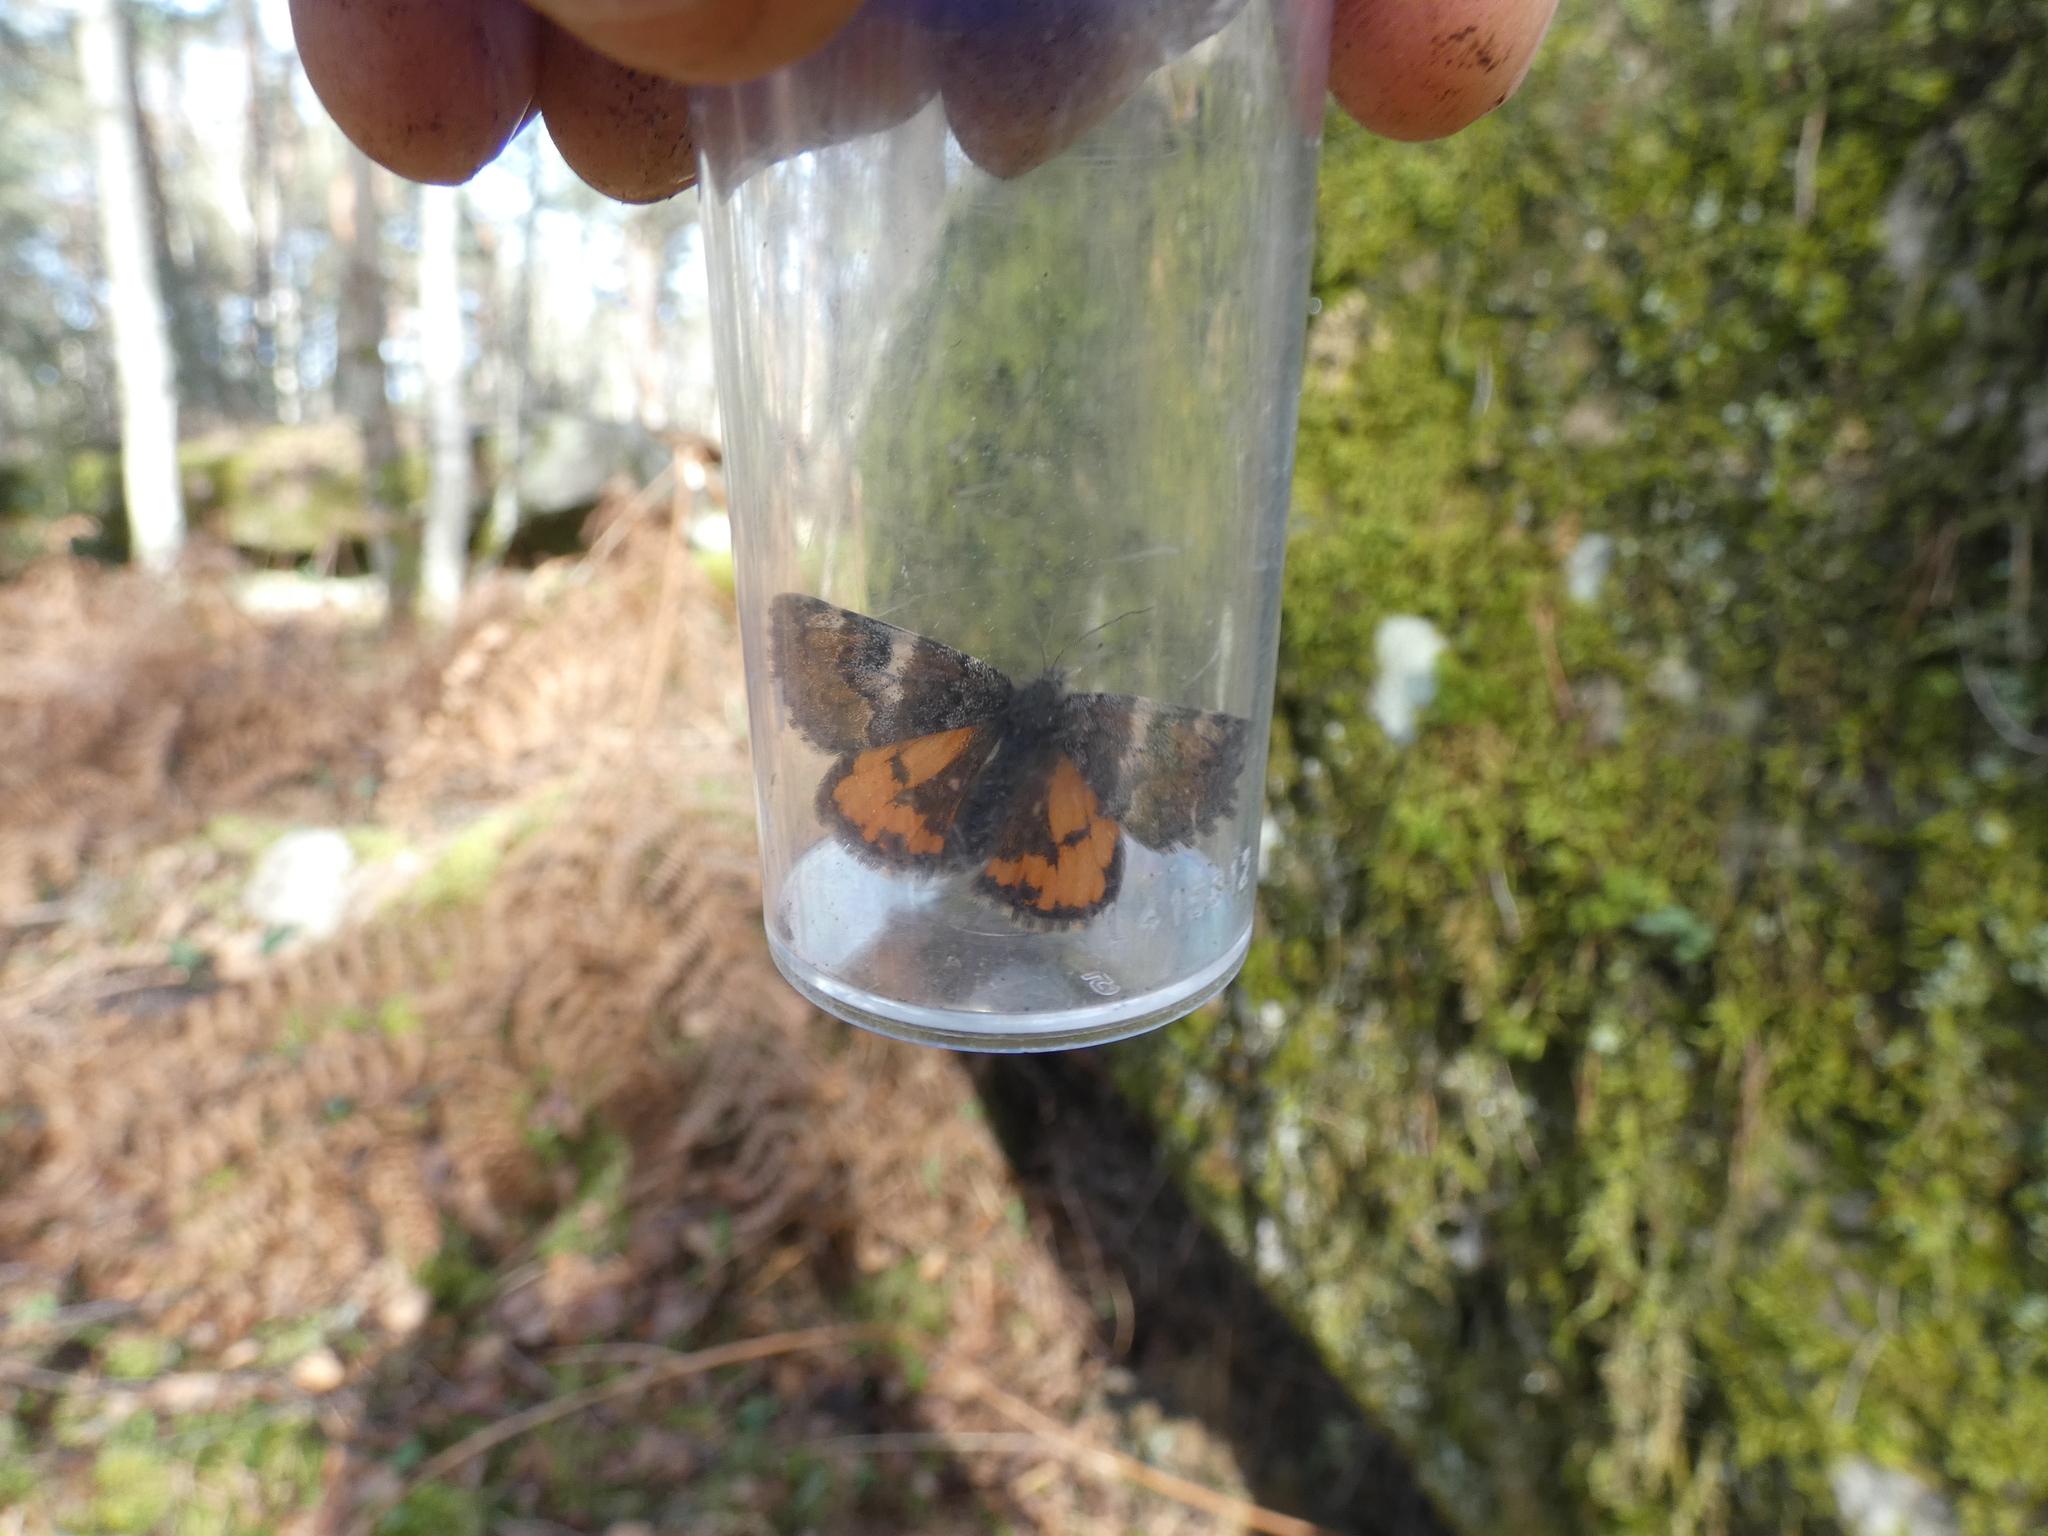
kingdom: Animalia
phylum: Arthropoda
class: Insecta
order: Lepidoptera
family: Geometridae
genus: Archiearis
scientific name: Archiearis parthenias
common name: Orange underwing
